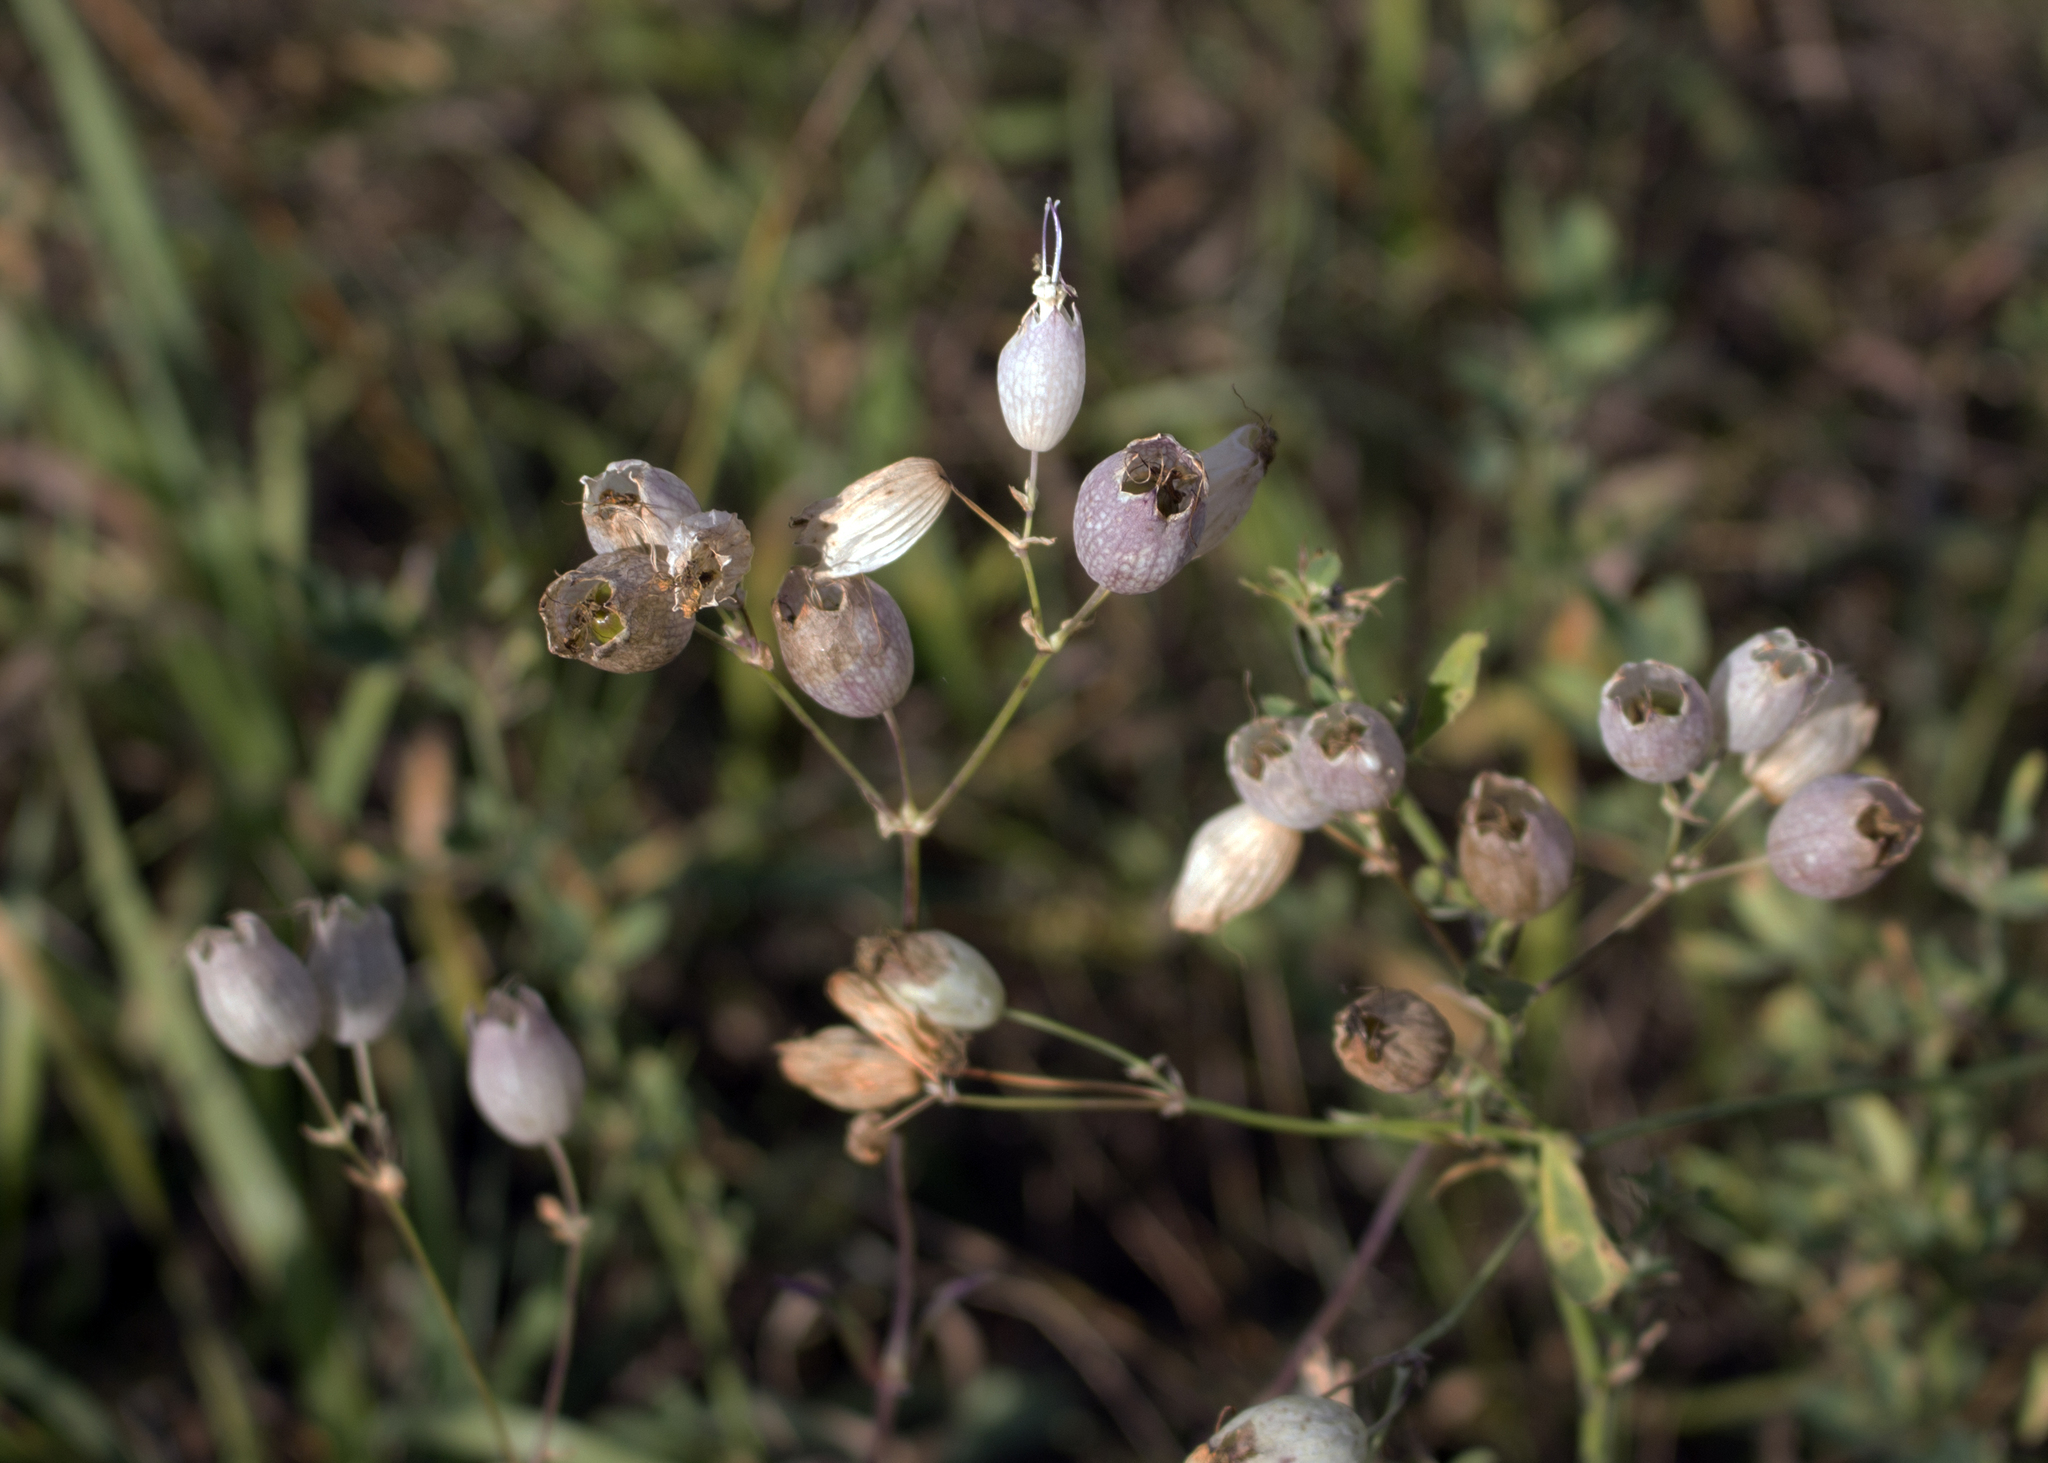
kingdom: Plantae
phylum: Tracheophyta
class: Magnoliopsida
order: Caryophyllales
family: Caryophyllaceae
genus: Silene
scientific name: Silene vulgaris
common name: Bladder campion
